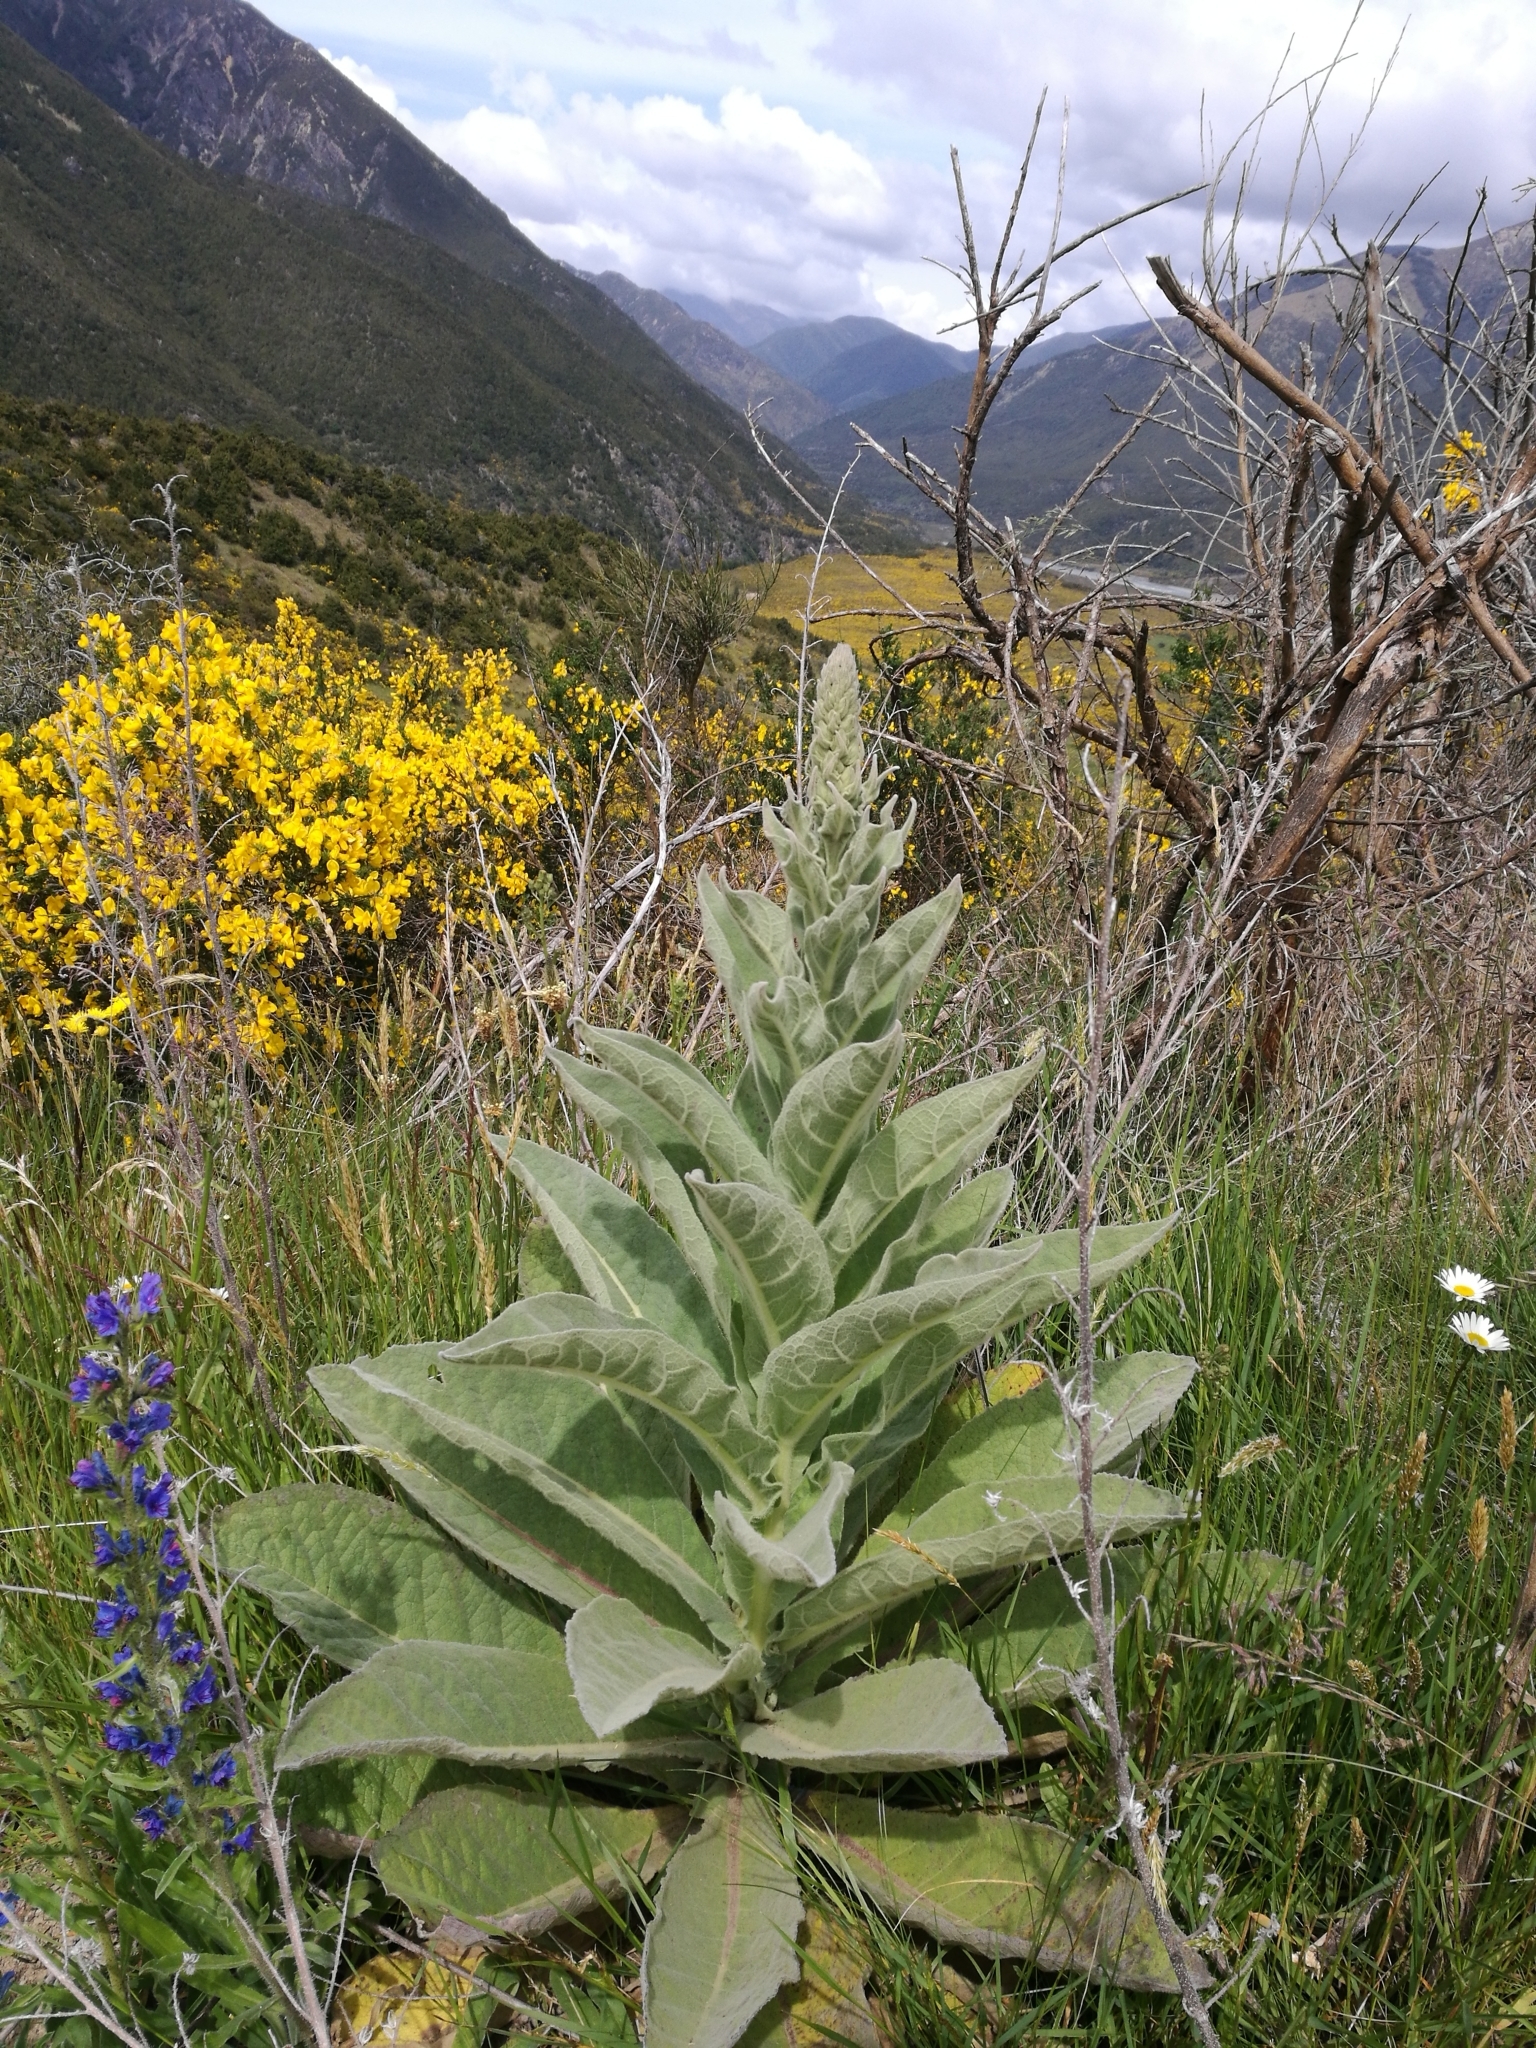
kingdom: Plantae
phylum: Tracheophyta
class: Magnoliopsida
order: Lamiales
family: Scrophulariaceae
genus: Verbascum
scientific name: Verbascum thapsus
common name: Common mullein
